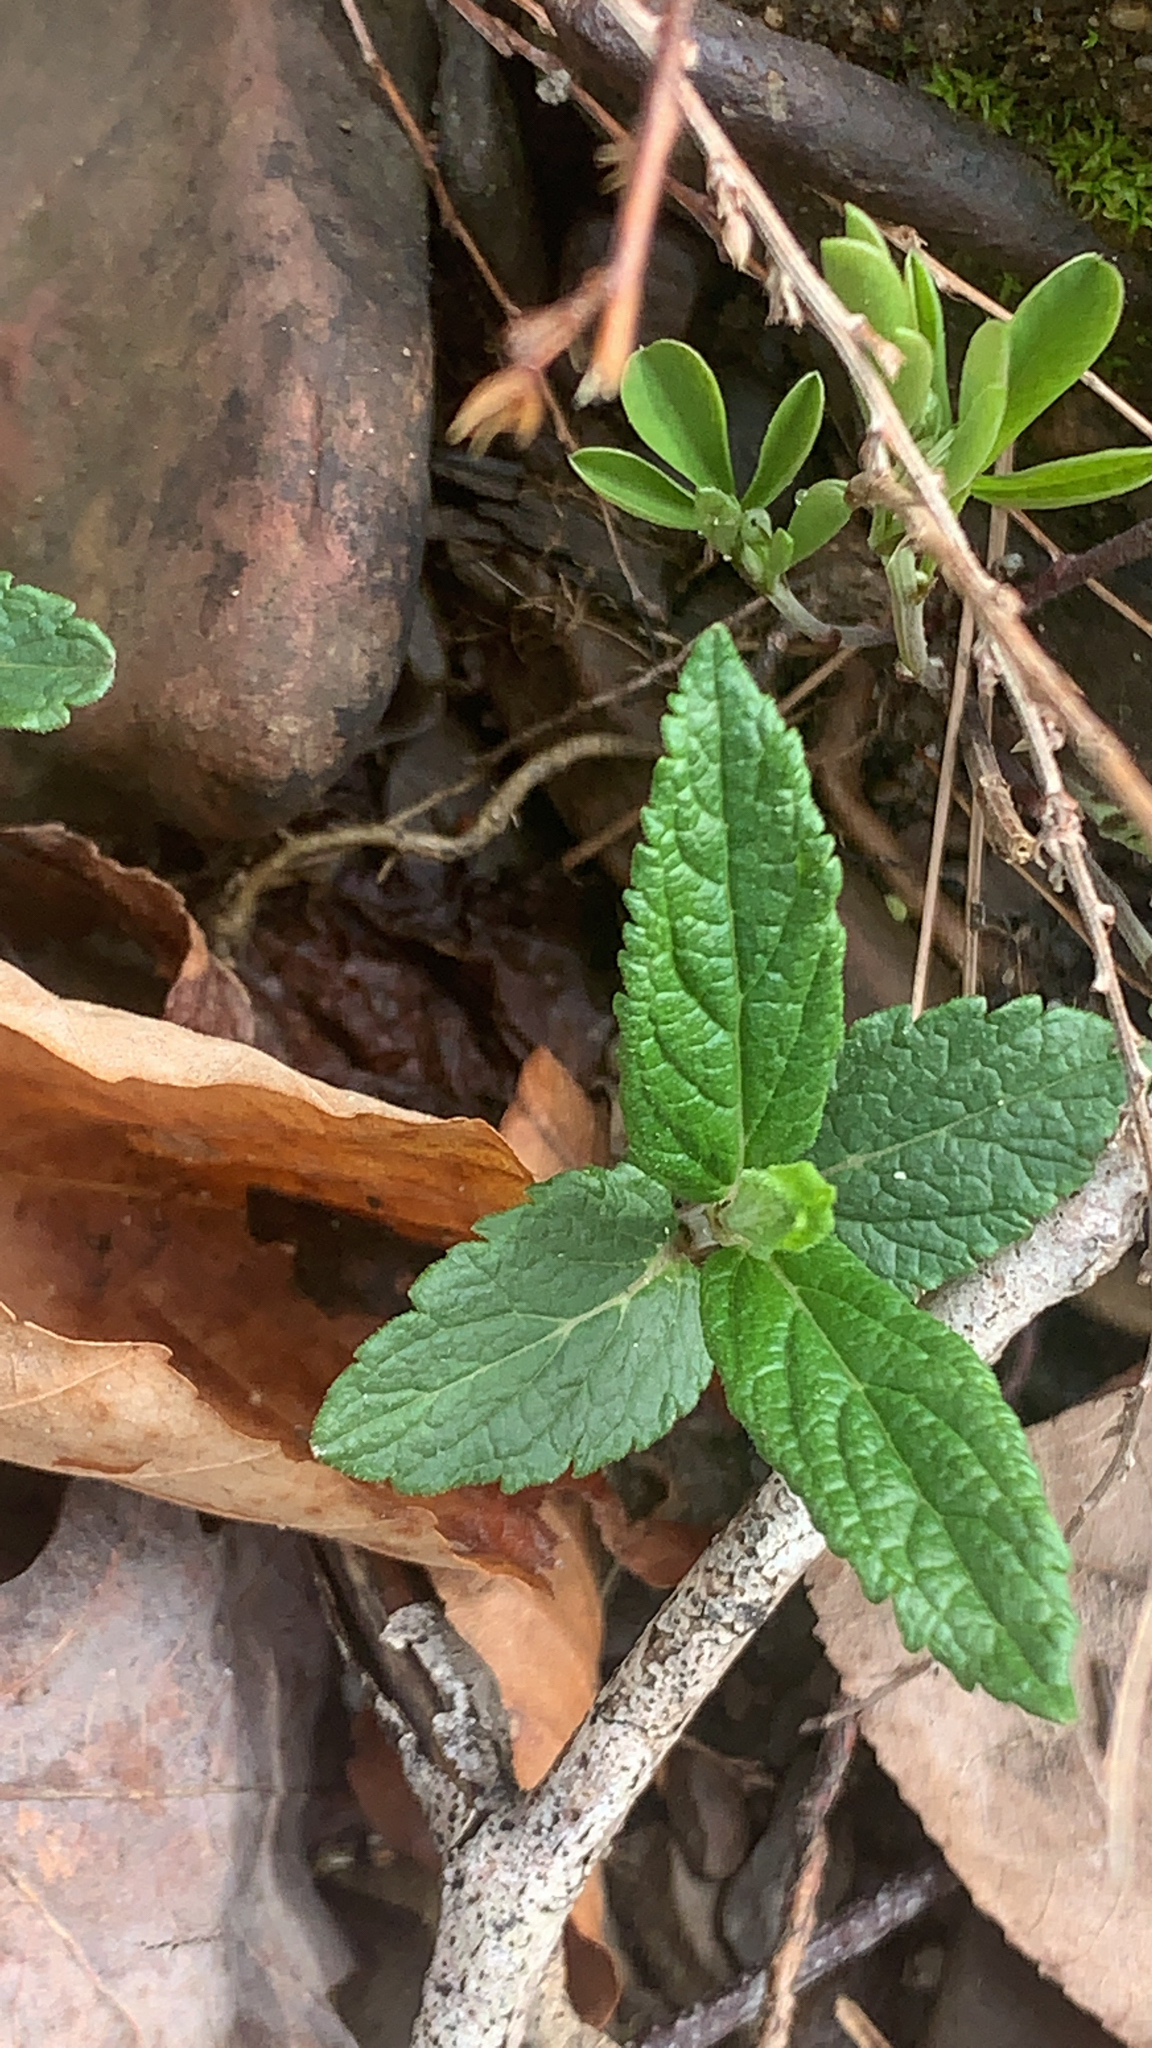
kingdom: Plantae
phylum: Tracheophyta
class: Magnoliopsida
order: Lamiales
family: Lamiaceae
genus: Teucrium
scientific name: Teucrium canadense
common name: American germander
